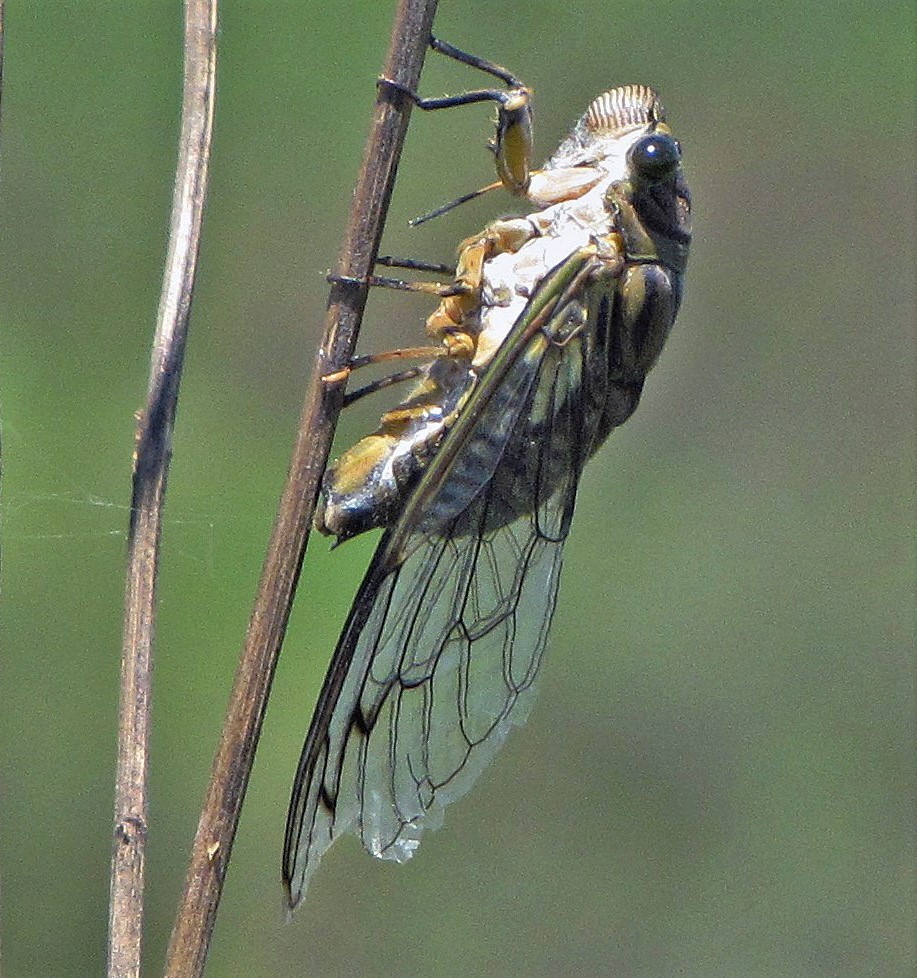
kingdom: Animalia
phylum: Arthropoda
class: Insecta
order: Hemiptera
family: Cicadidae
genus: Quesada
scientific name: Quesada gigas
